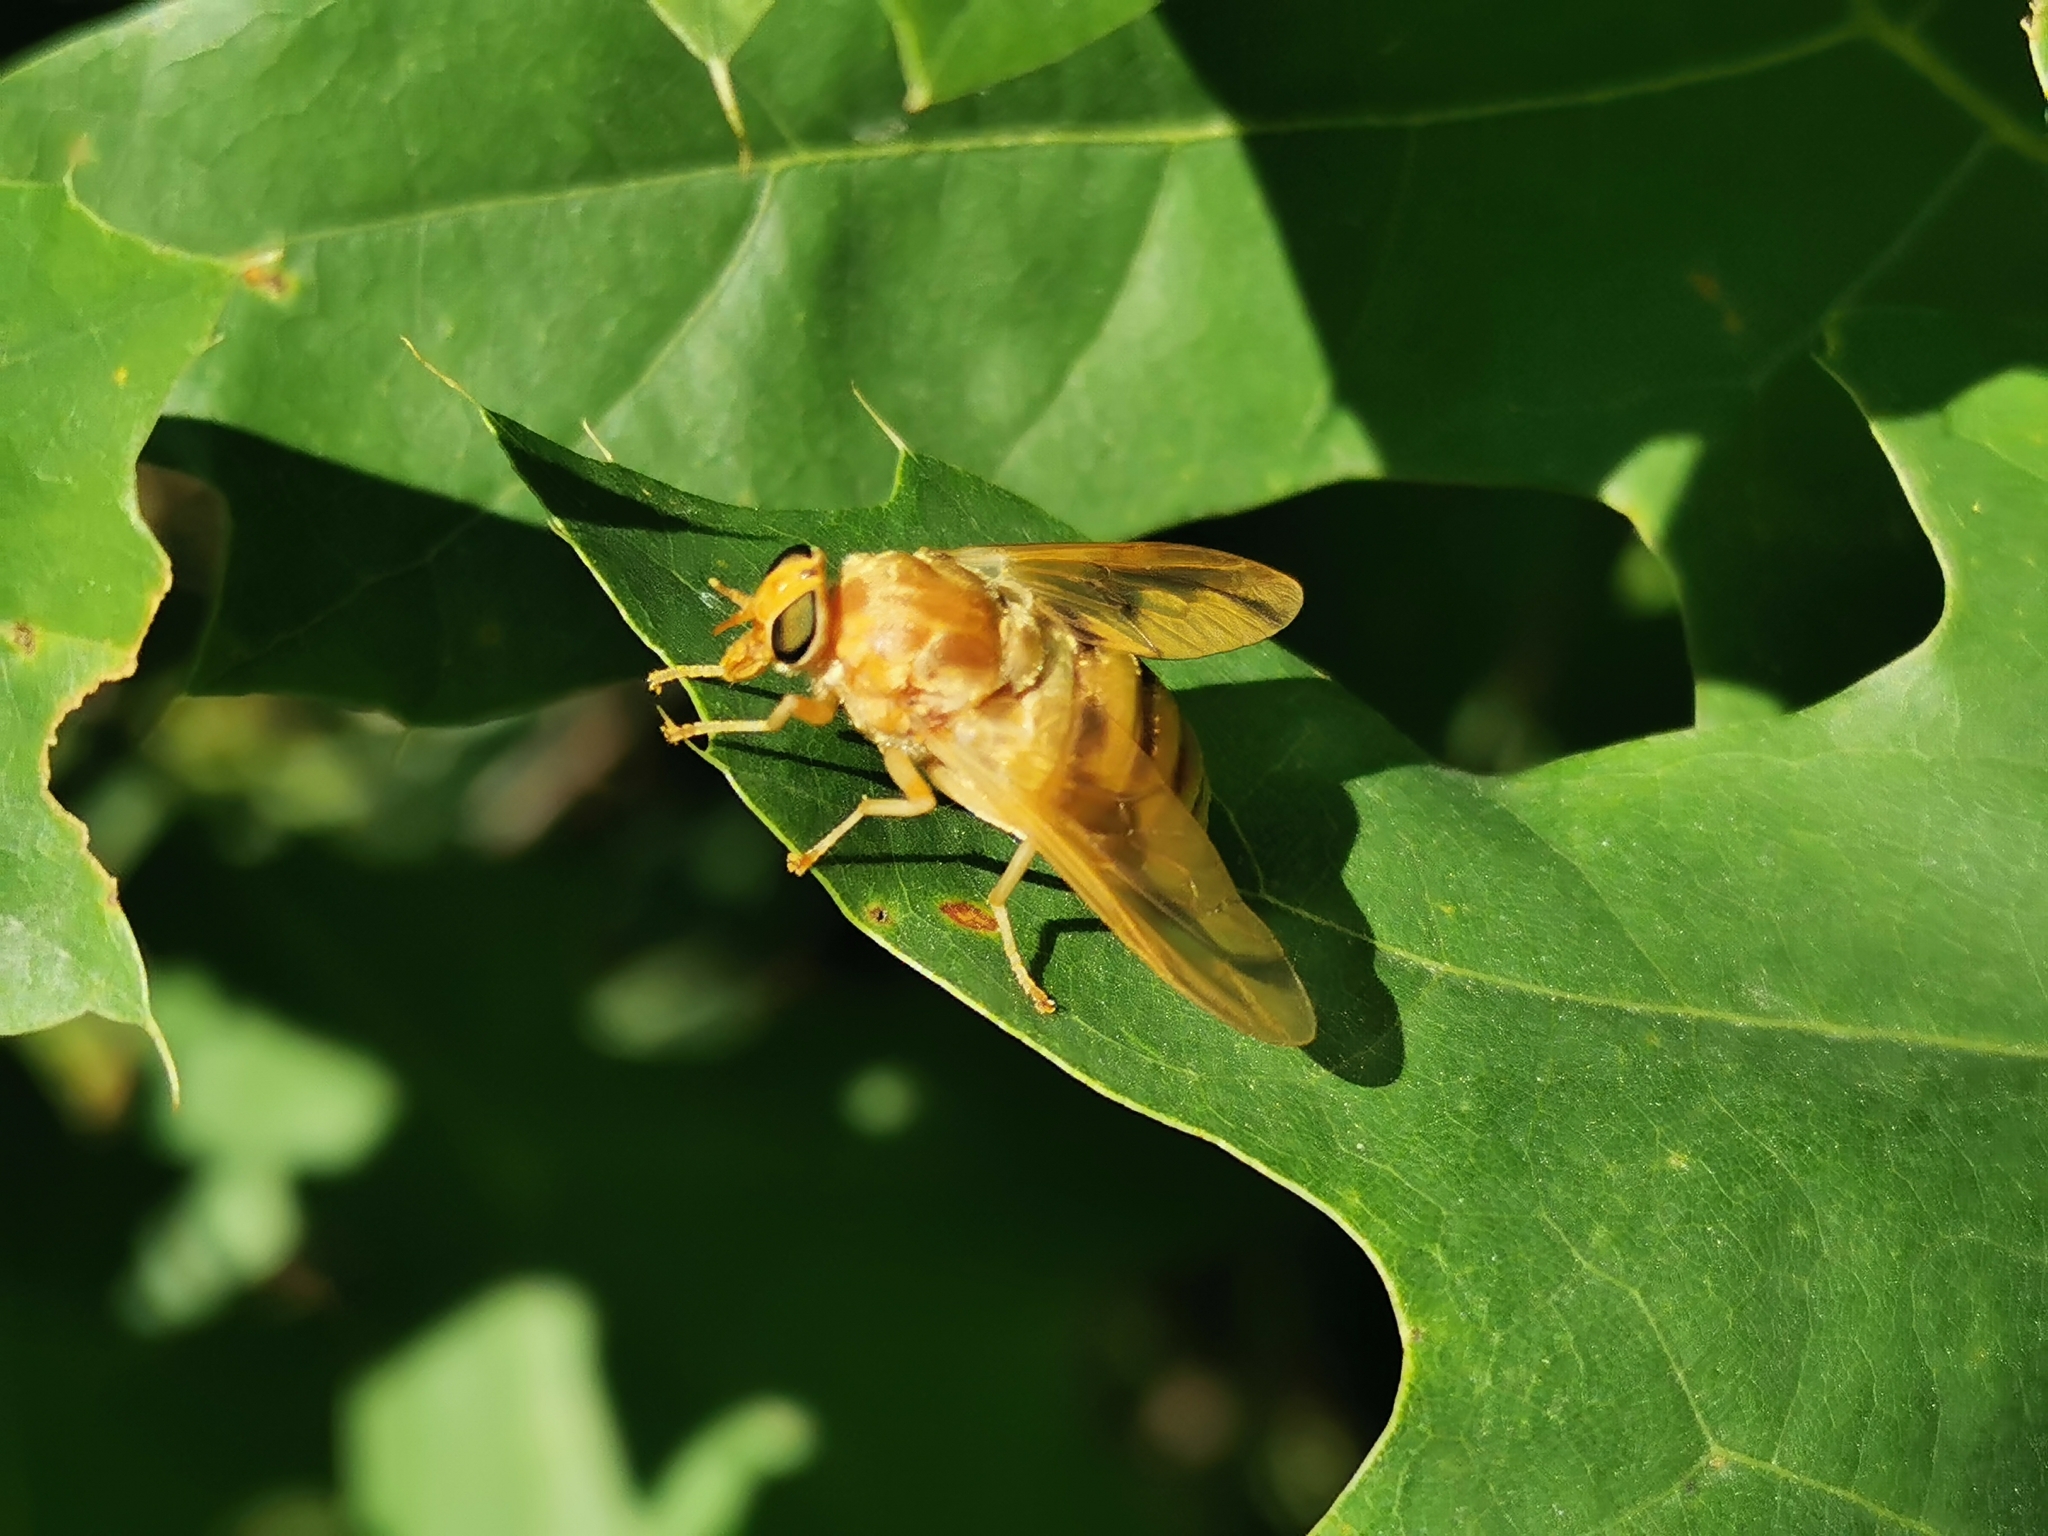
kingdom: Animalia
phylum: Arthropoda
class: Insecta
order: Diptera
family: Tabanidae
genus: Goniops
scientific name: Goniops chrysocoma
